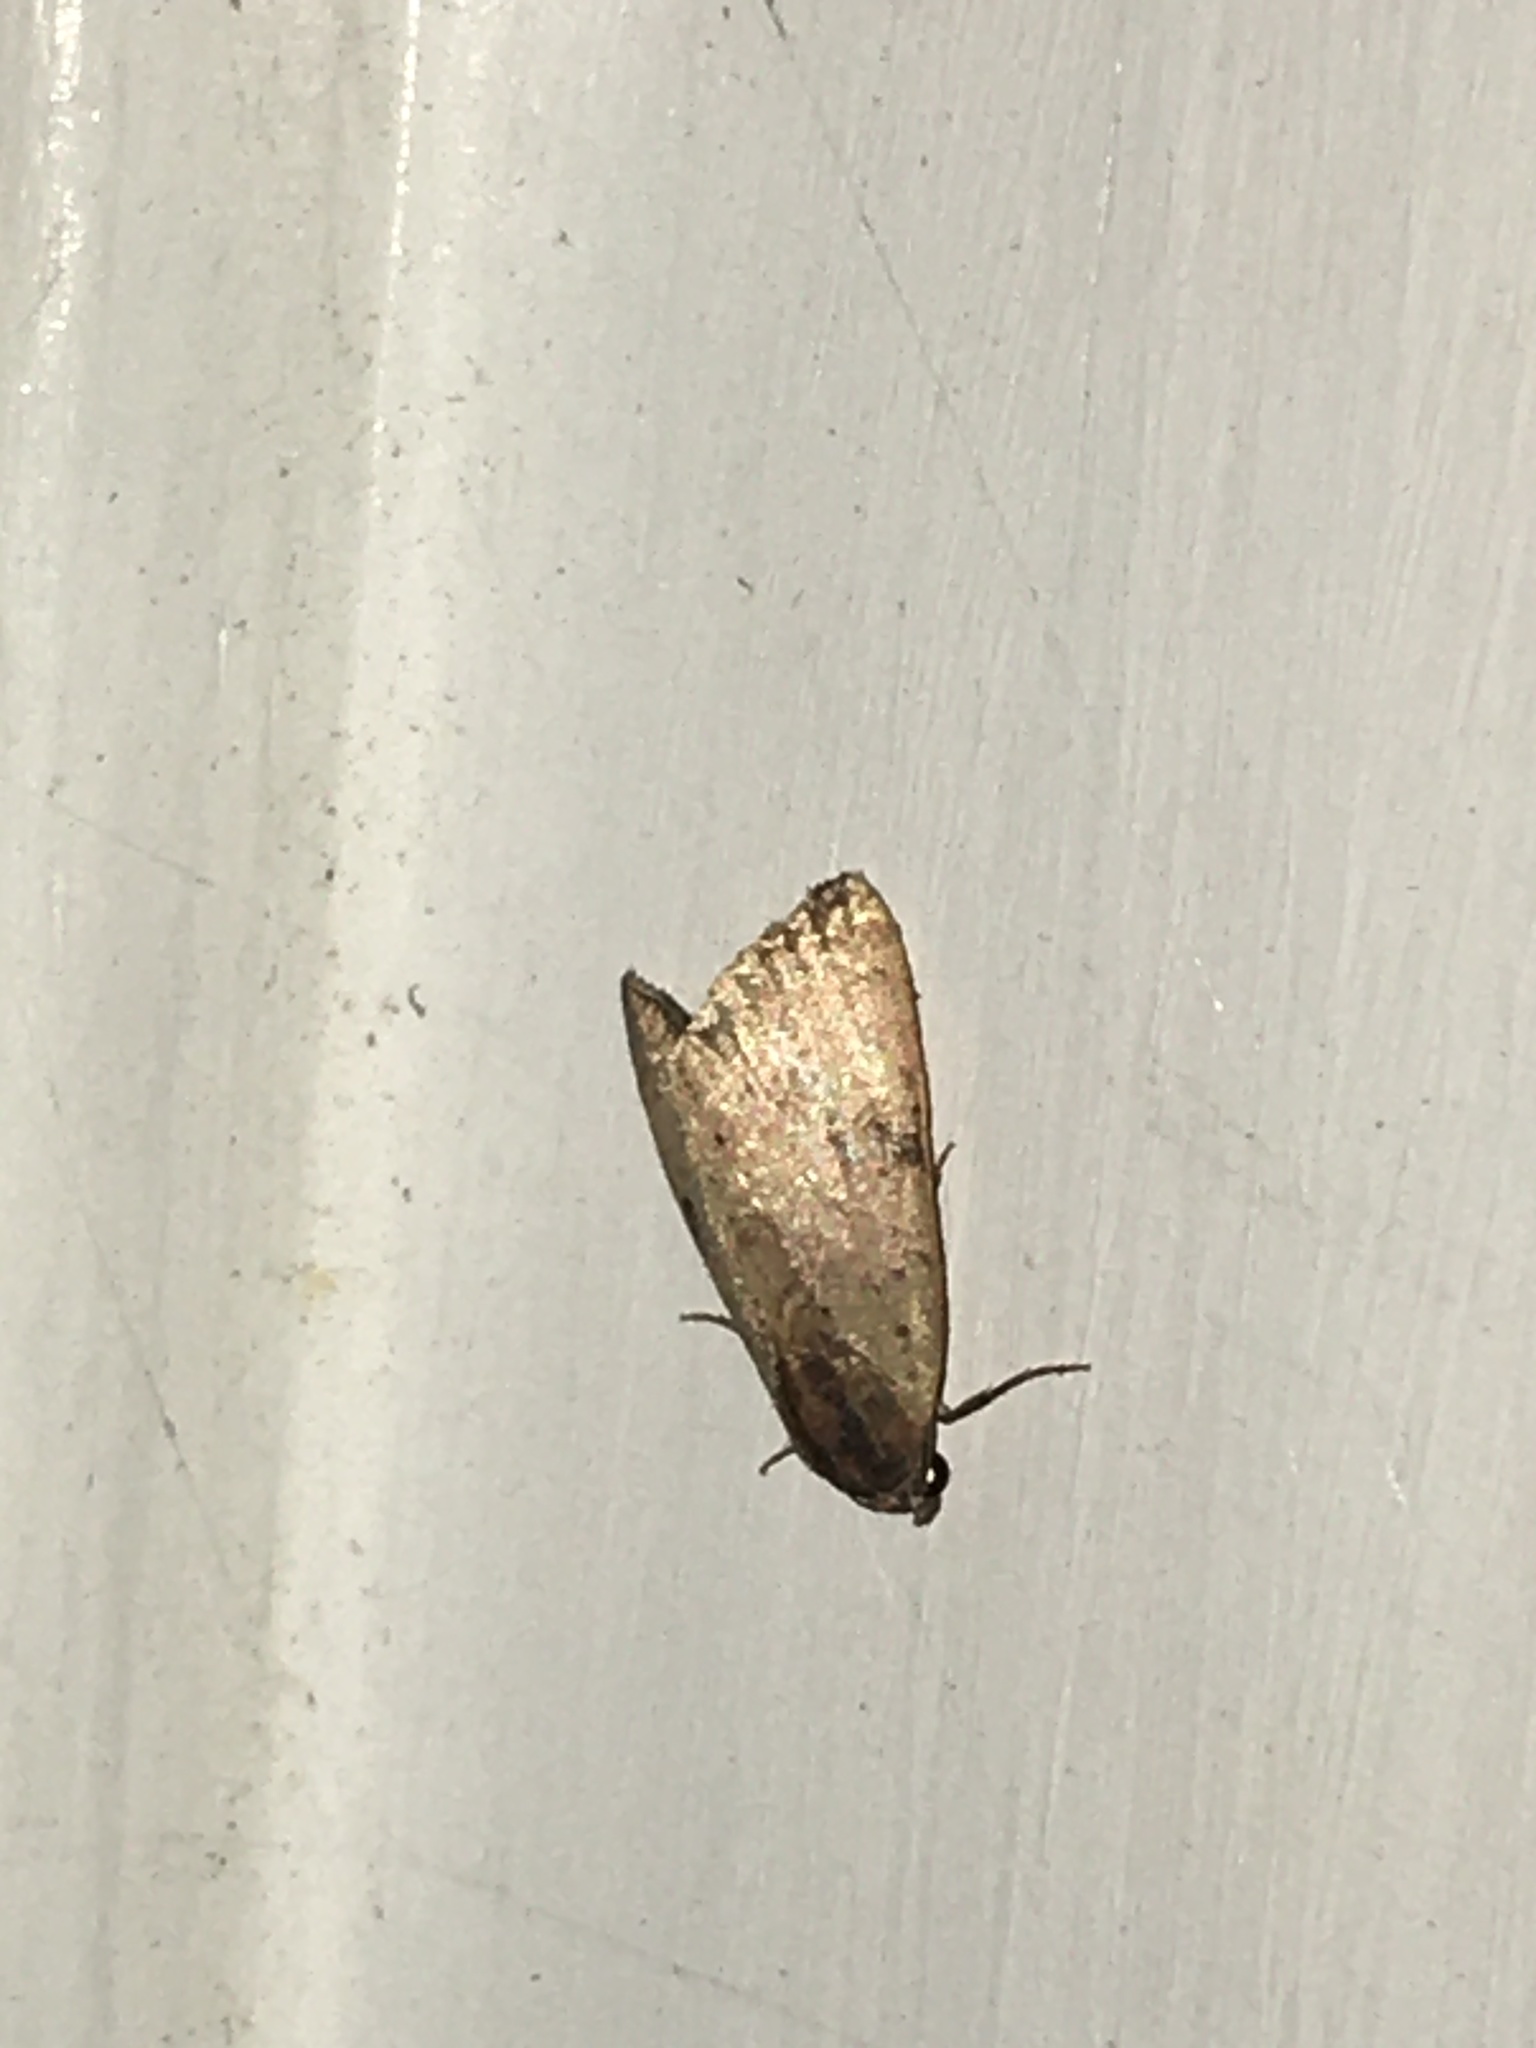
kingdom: Animalia
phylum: Arthropoda
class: Insecta
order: Lepidoptera
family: Noctuidae
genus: Galgula
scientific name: Galgula partita
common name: Wedgeling
